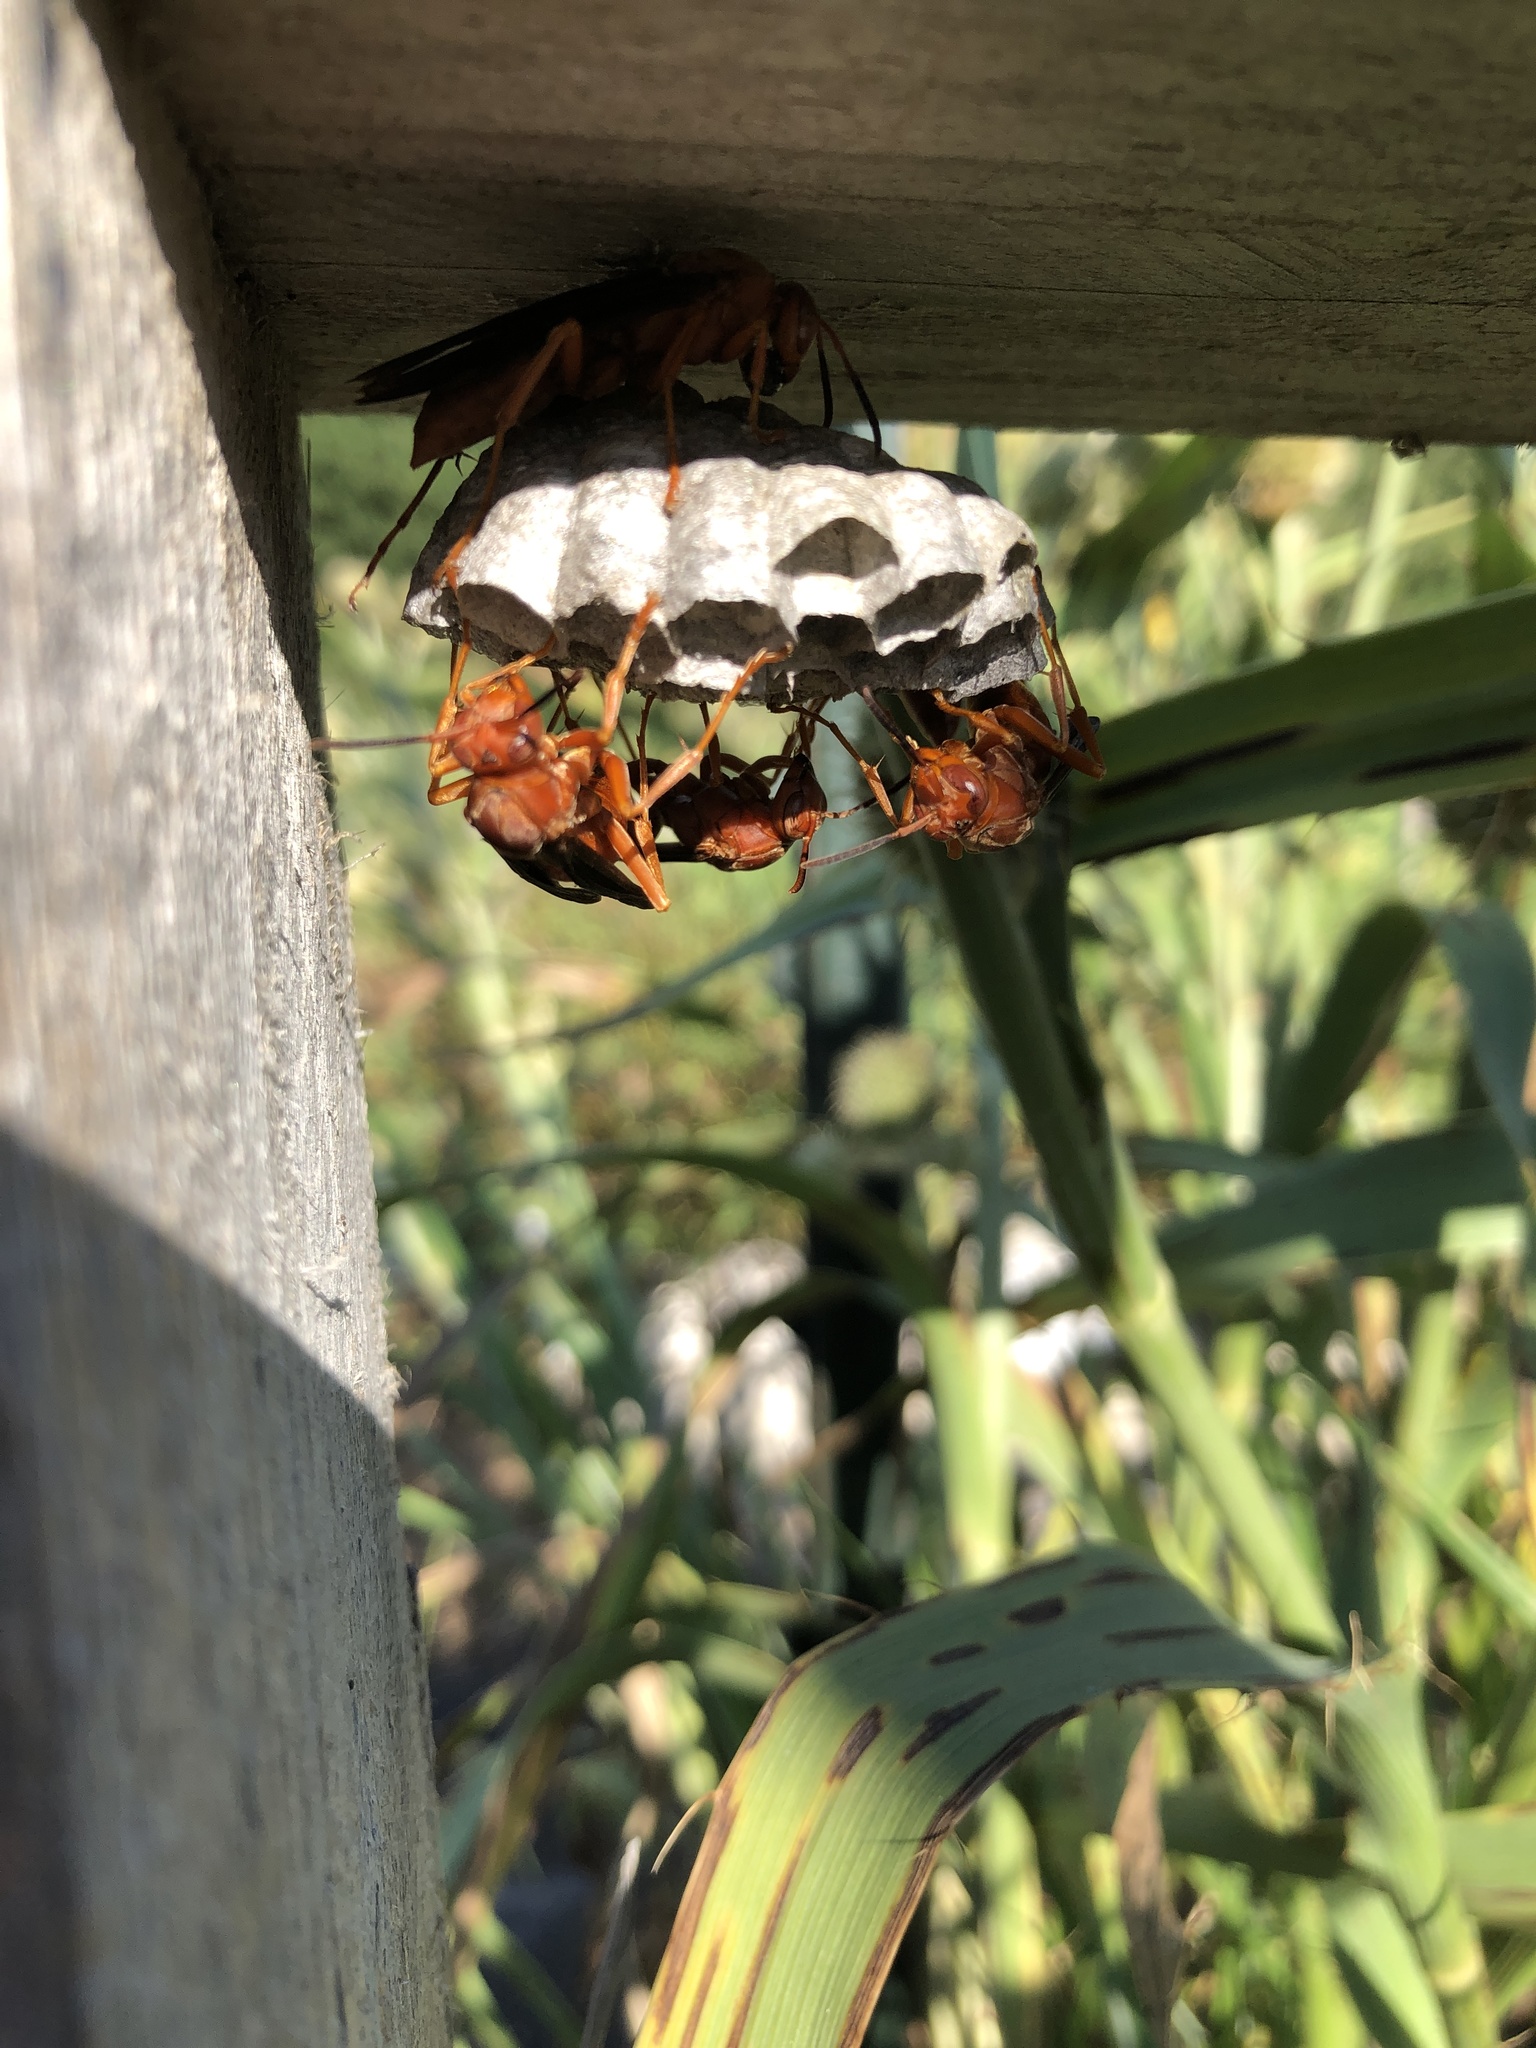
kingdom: Animalia
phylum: Arthropoda
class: Insecta
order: Hymenoptera
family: Eumenidae
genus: Polistes
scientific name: Polistes carolina
